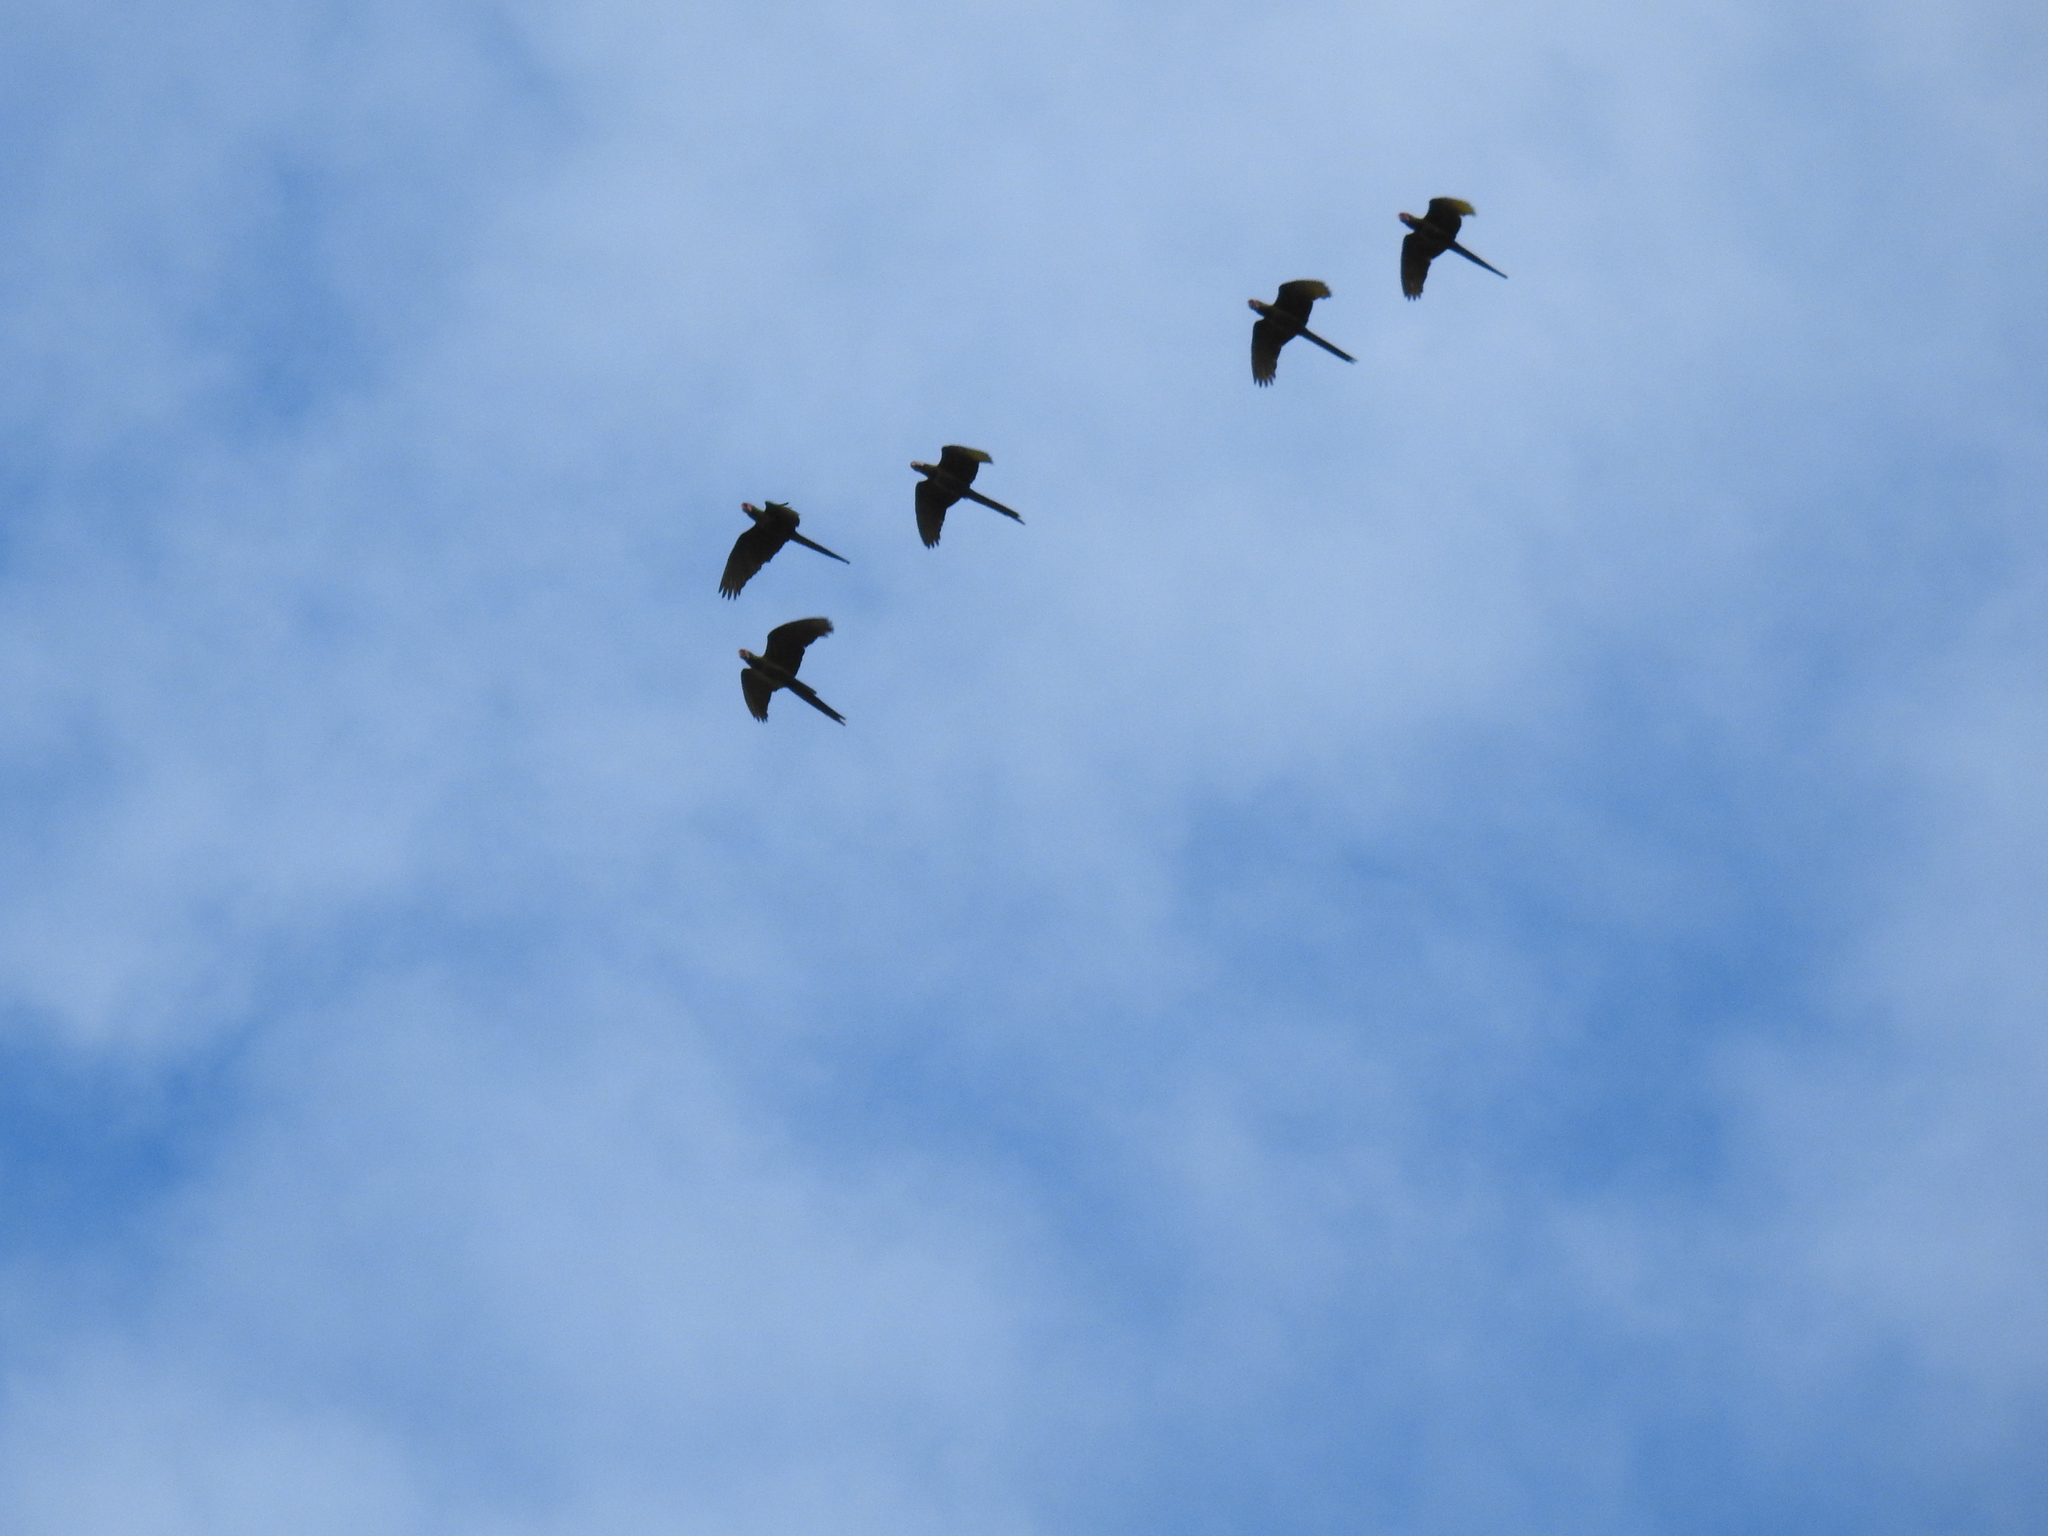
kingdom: Animalia
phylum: Chordata
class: Aves
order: Psittaciformes
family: Psittacidae
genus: Ara
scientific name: Ara militaris
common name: Military macaw
